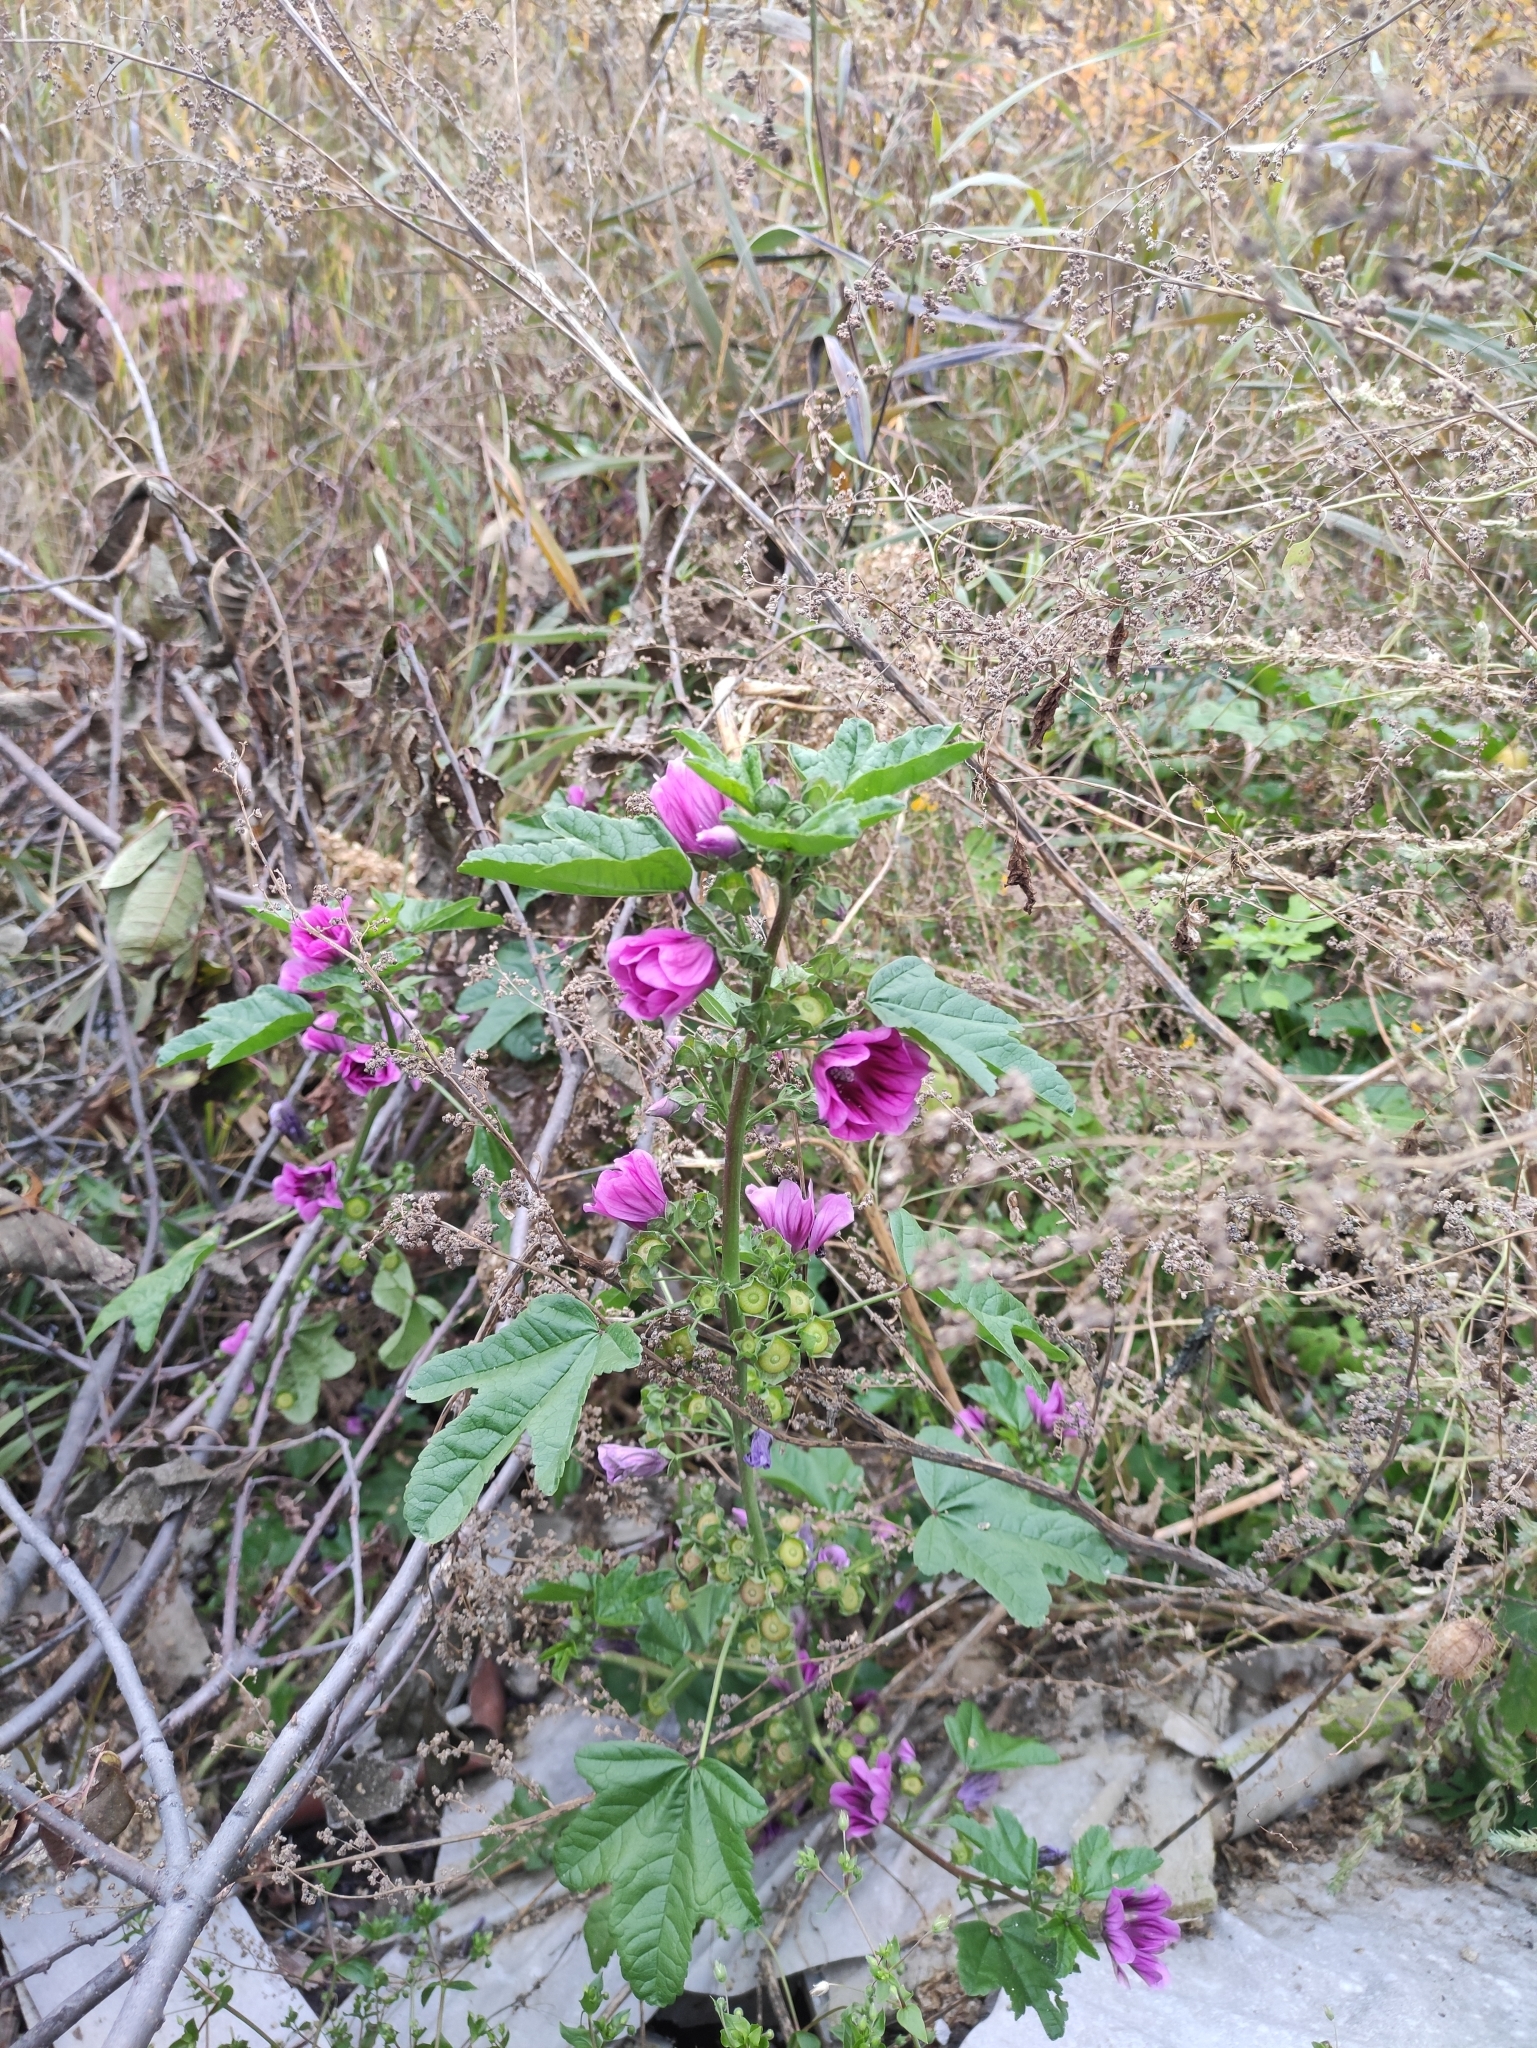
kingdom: Plantae
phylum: Tracheophyta
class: Magnoliopsida
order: Malvales
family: Malvaceae
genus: Malva
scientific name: Malva sylvestris
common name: Common mallow
